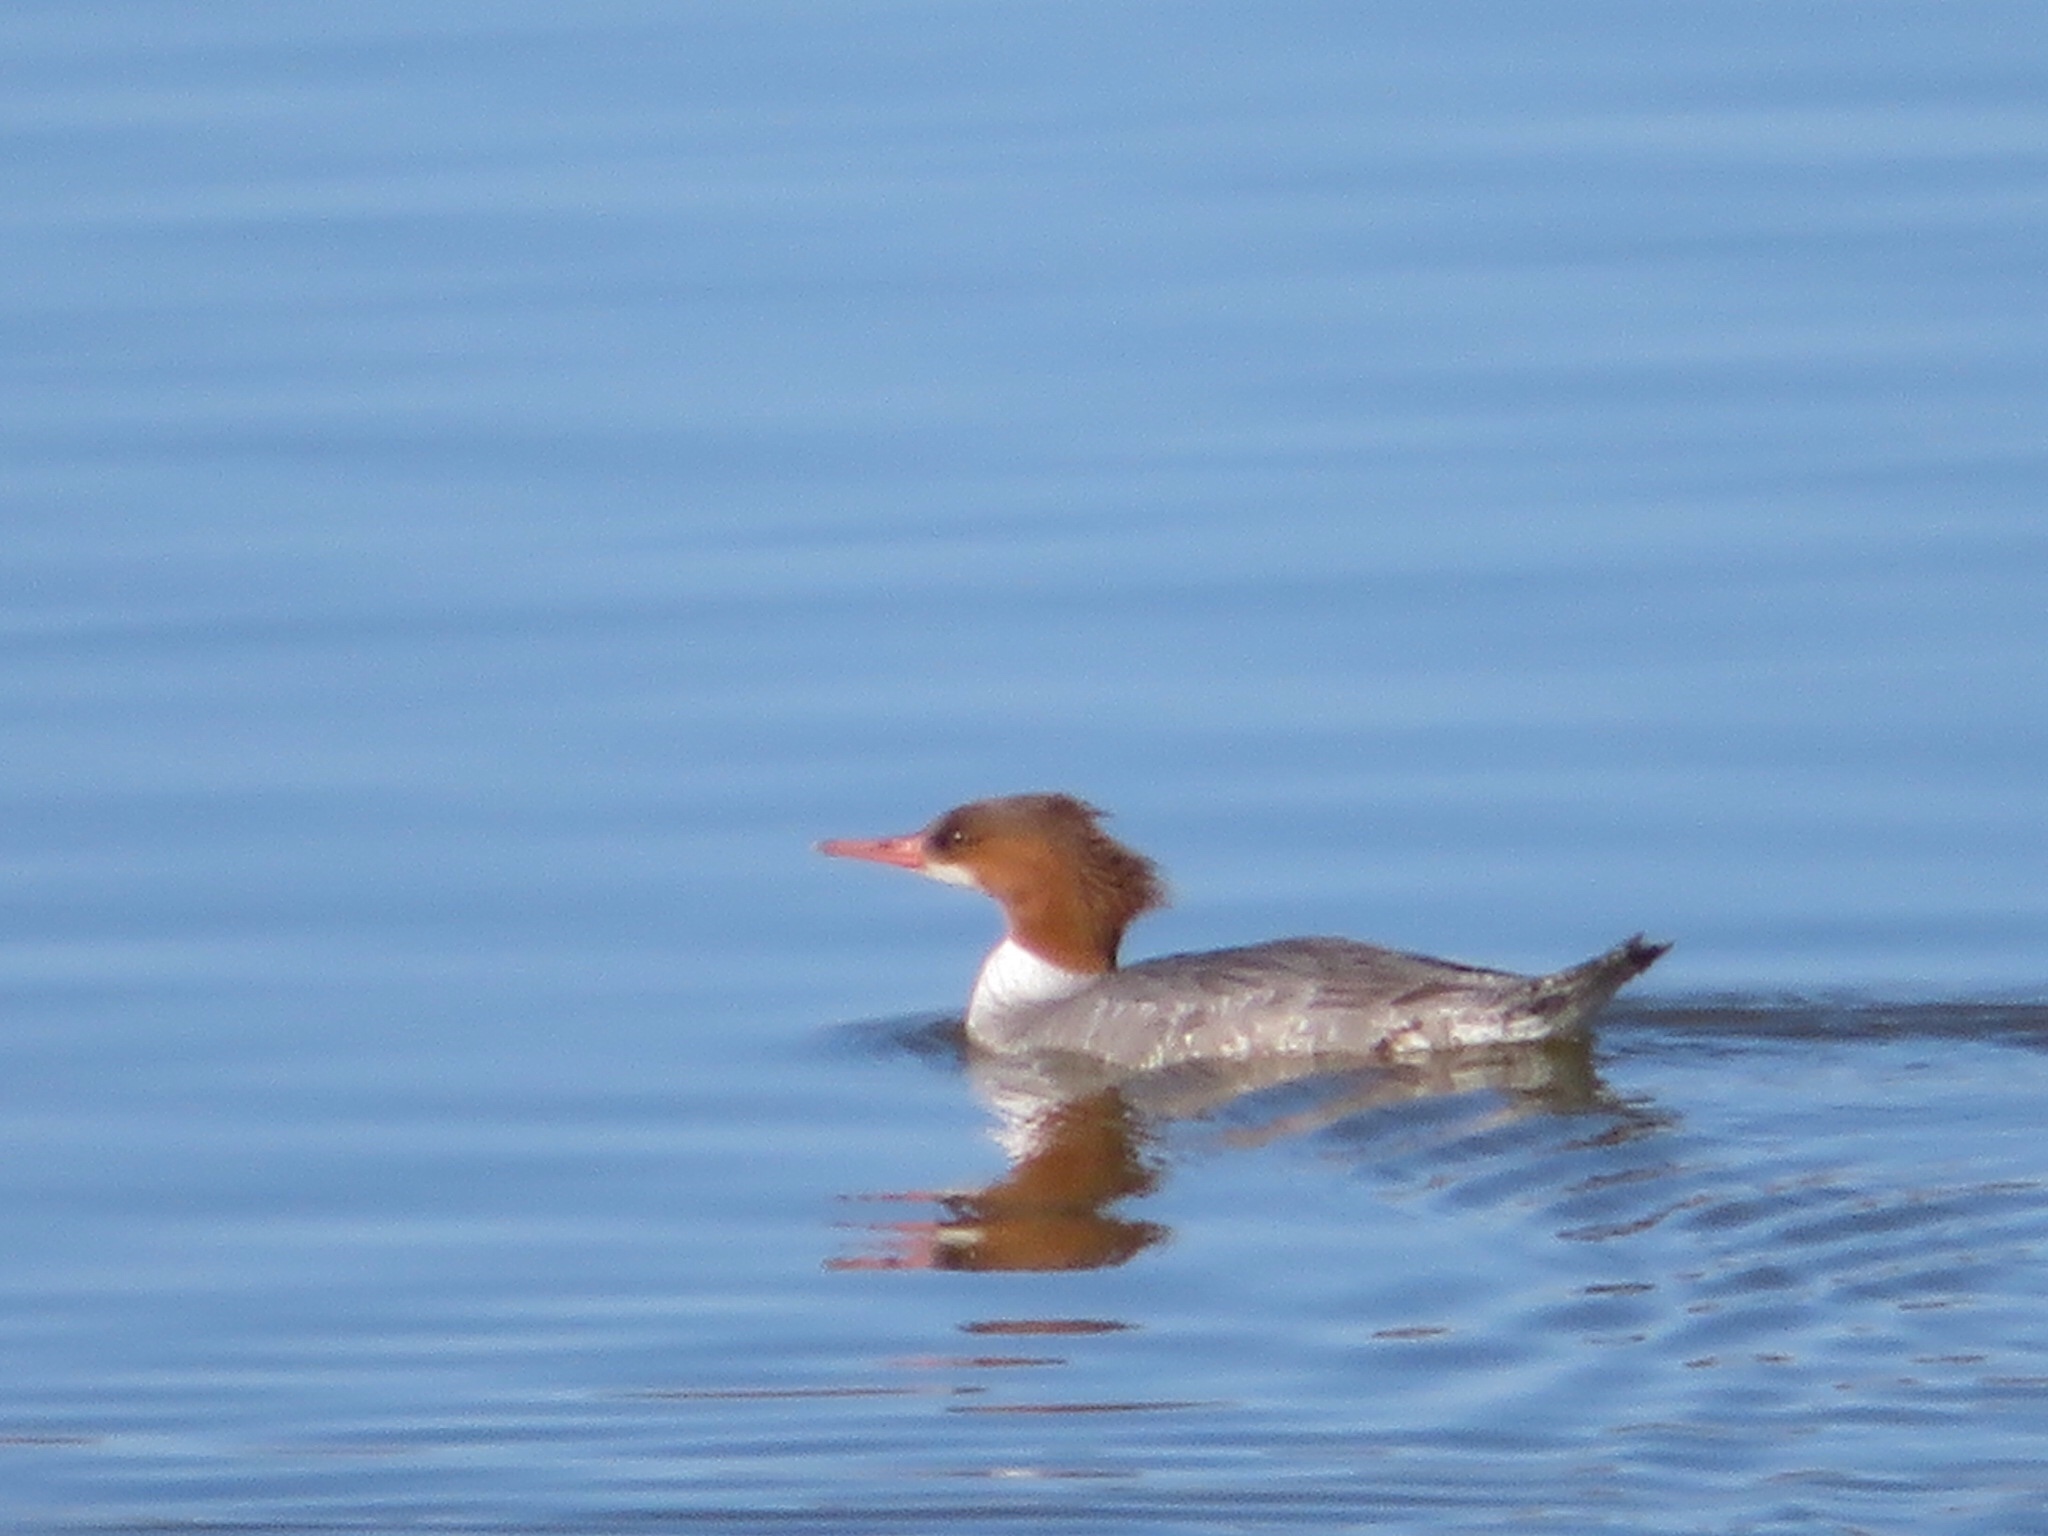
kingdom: Animalia
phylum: Chordata
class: Aves
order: Anseriformes
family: Anatidae
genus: Mergus
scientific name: Mergus merganser
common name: Common merganser
